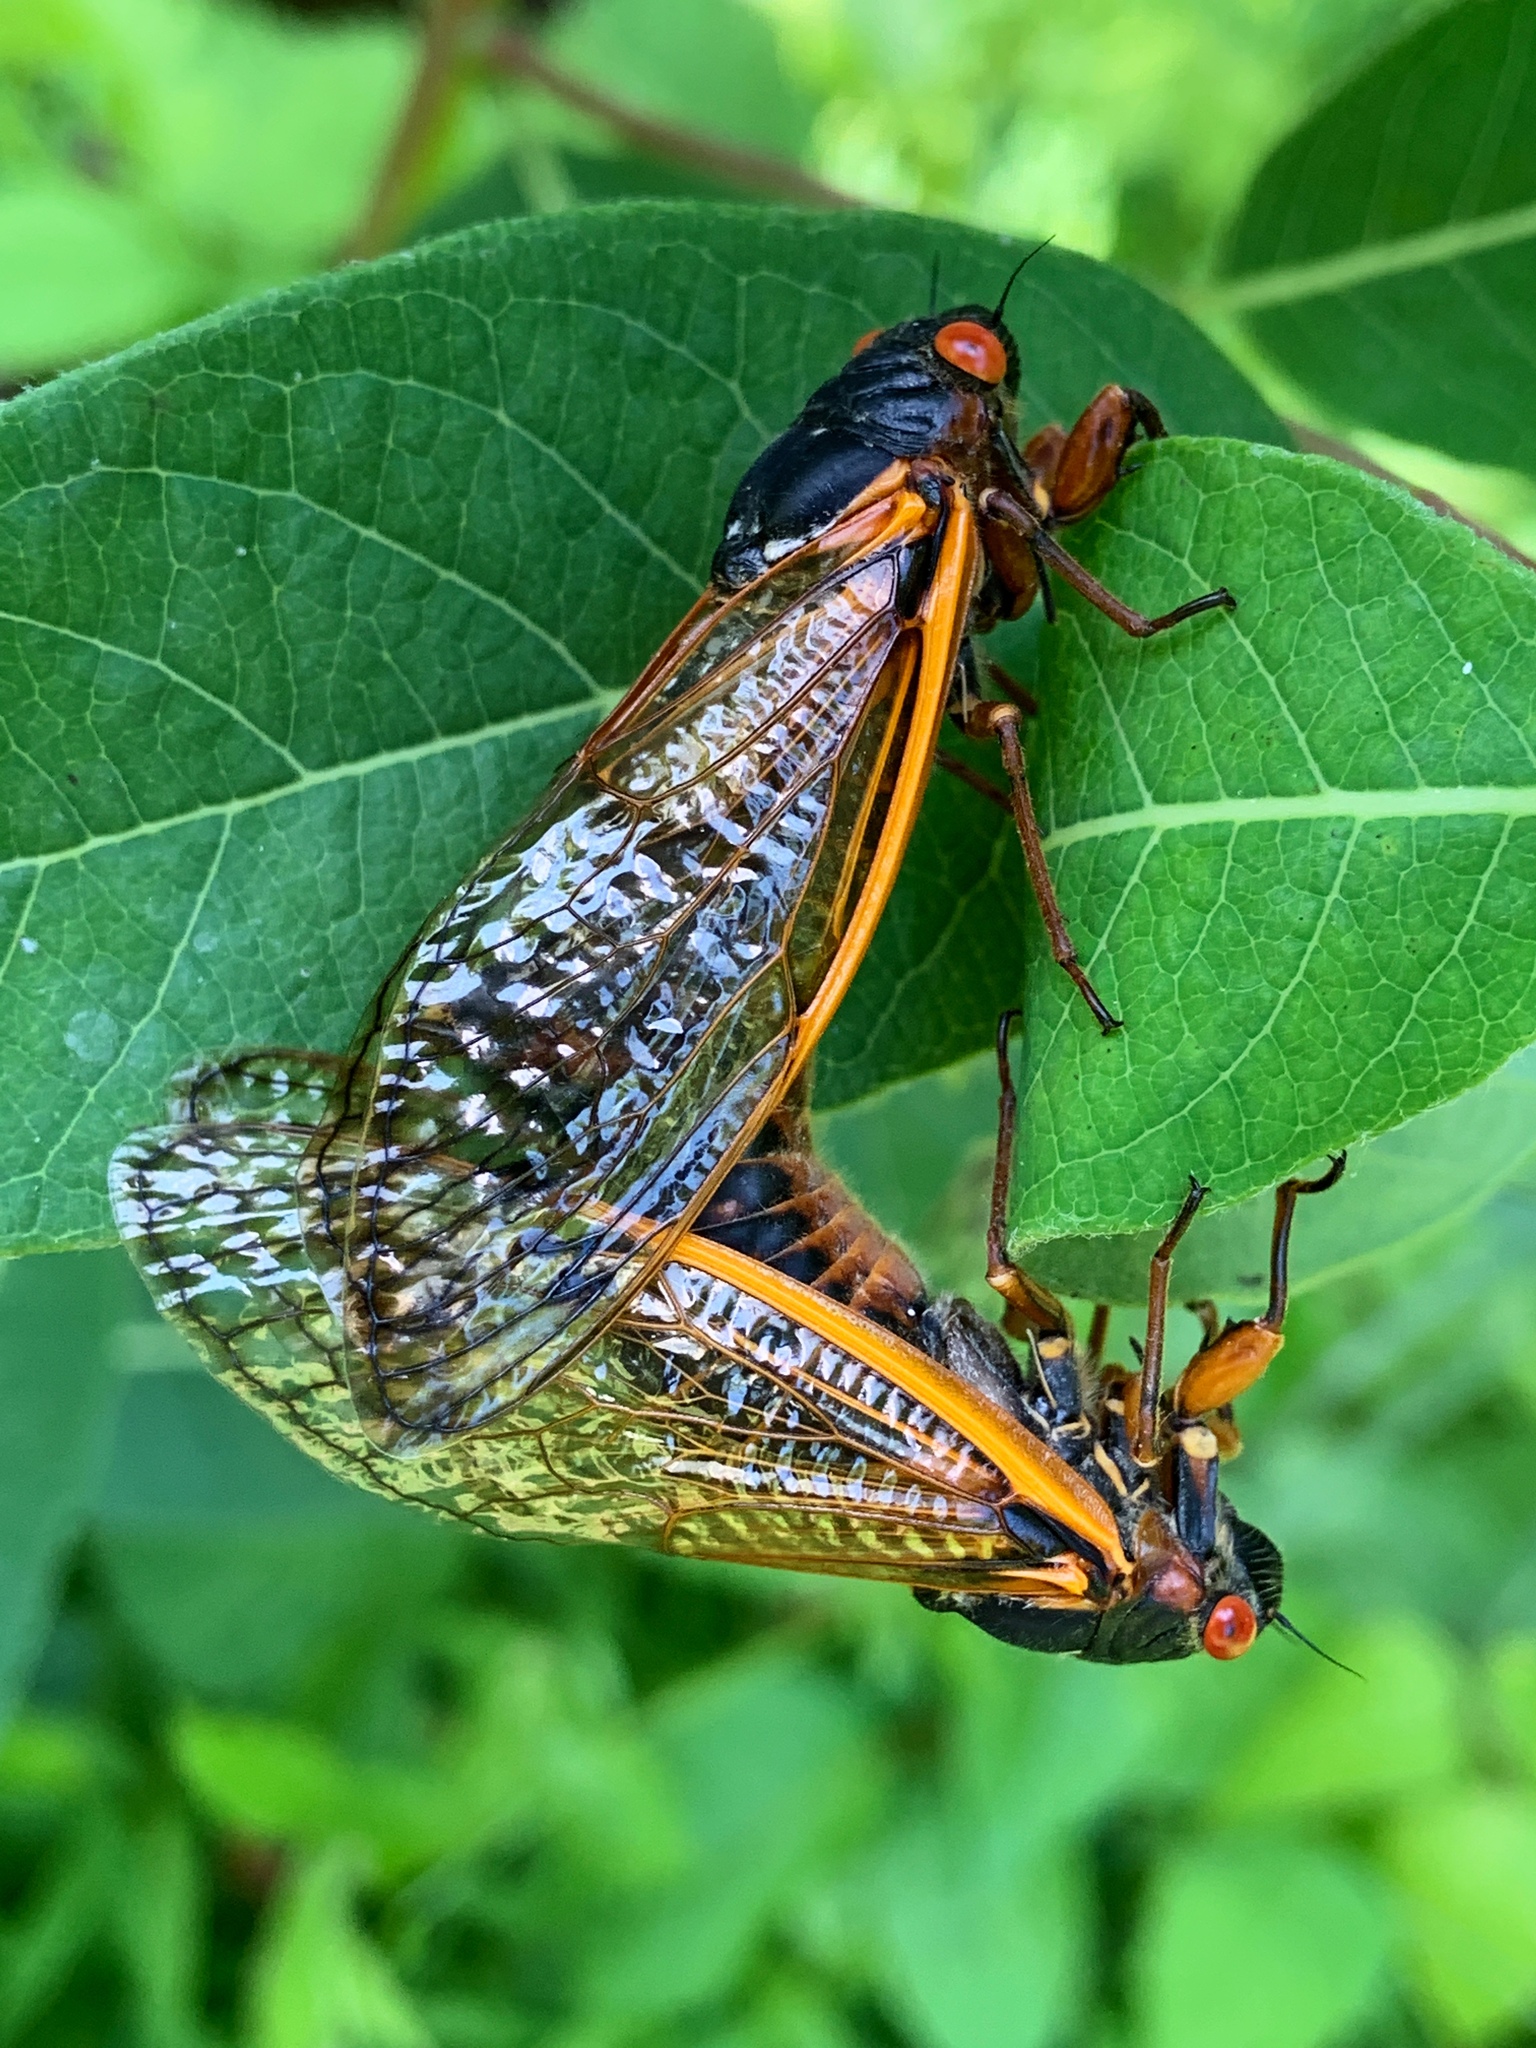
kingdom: Animalia
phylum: Arthropoda
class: Insecta
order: Hemiptera
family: Cicadidae
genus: Magicicada
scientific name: Magicicada septendecim
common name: Periodical cicada
